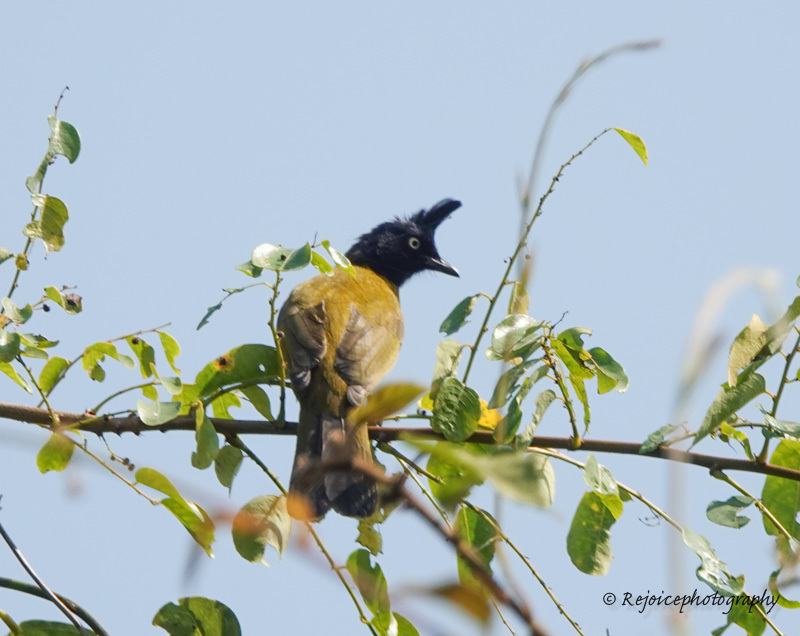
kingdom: Animalia
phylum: Chordata
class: Aves
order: Passeriformes
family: Pycnonotidae
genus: Pycnonotus
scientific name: Pycnonotus flaviventris
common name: Black-crested bulbul
